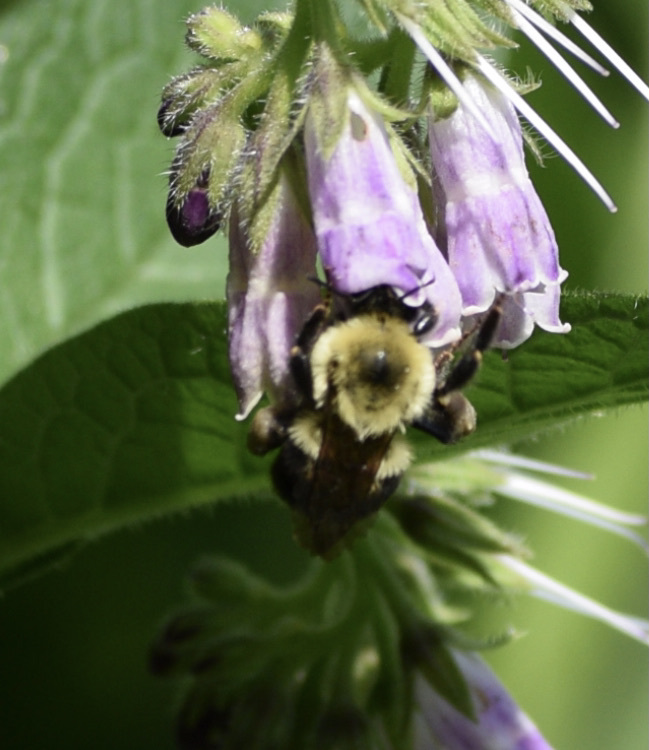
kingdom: Animalia
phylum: Arthropoda
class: Insecta
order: Hymenoptera
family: Apidae
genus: Bombus
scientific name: Bombus bimaculatus
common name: Two-spotted bumble bee
